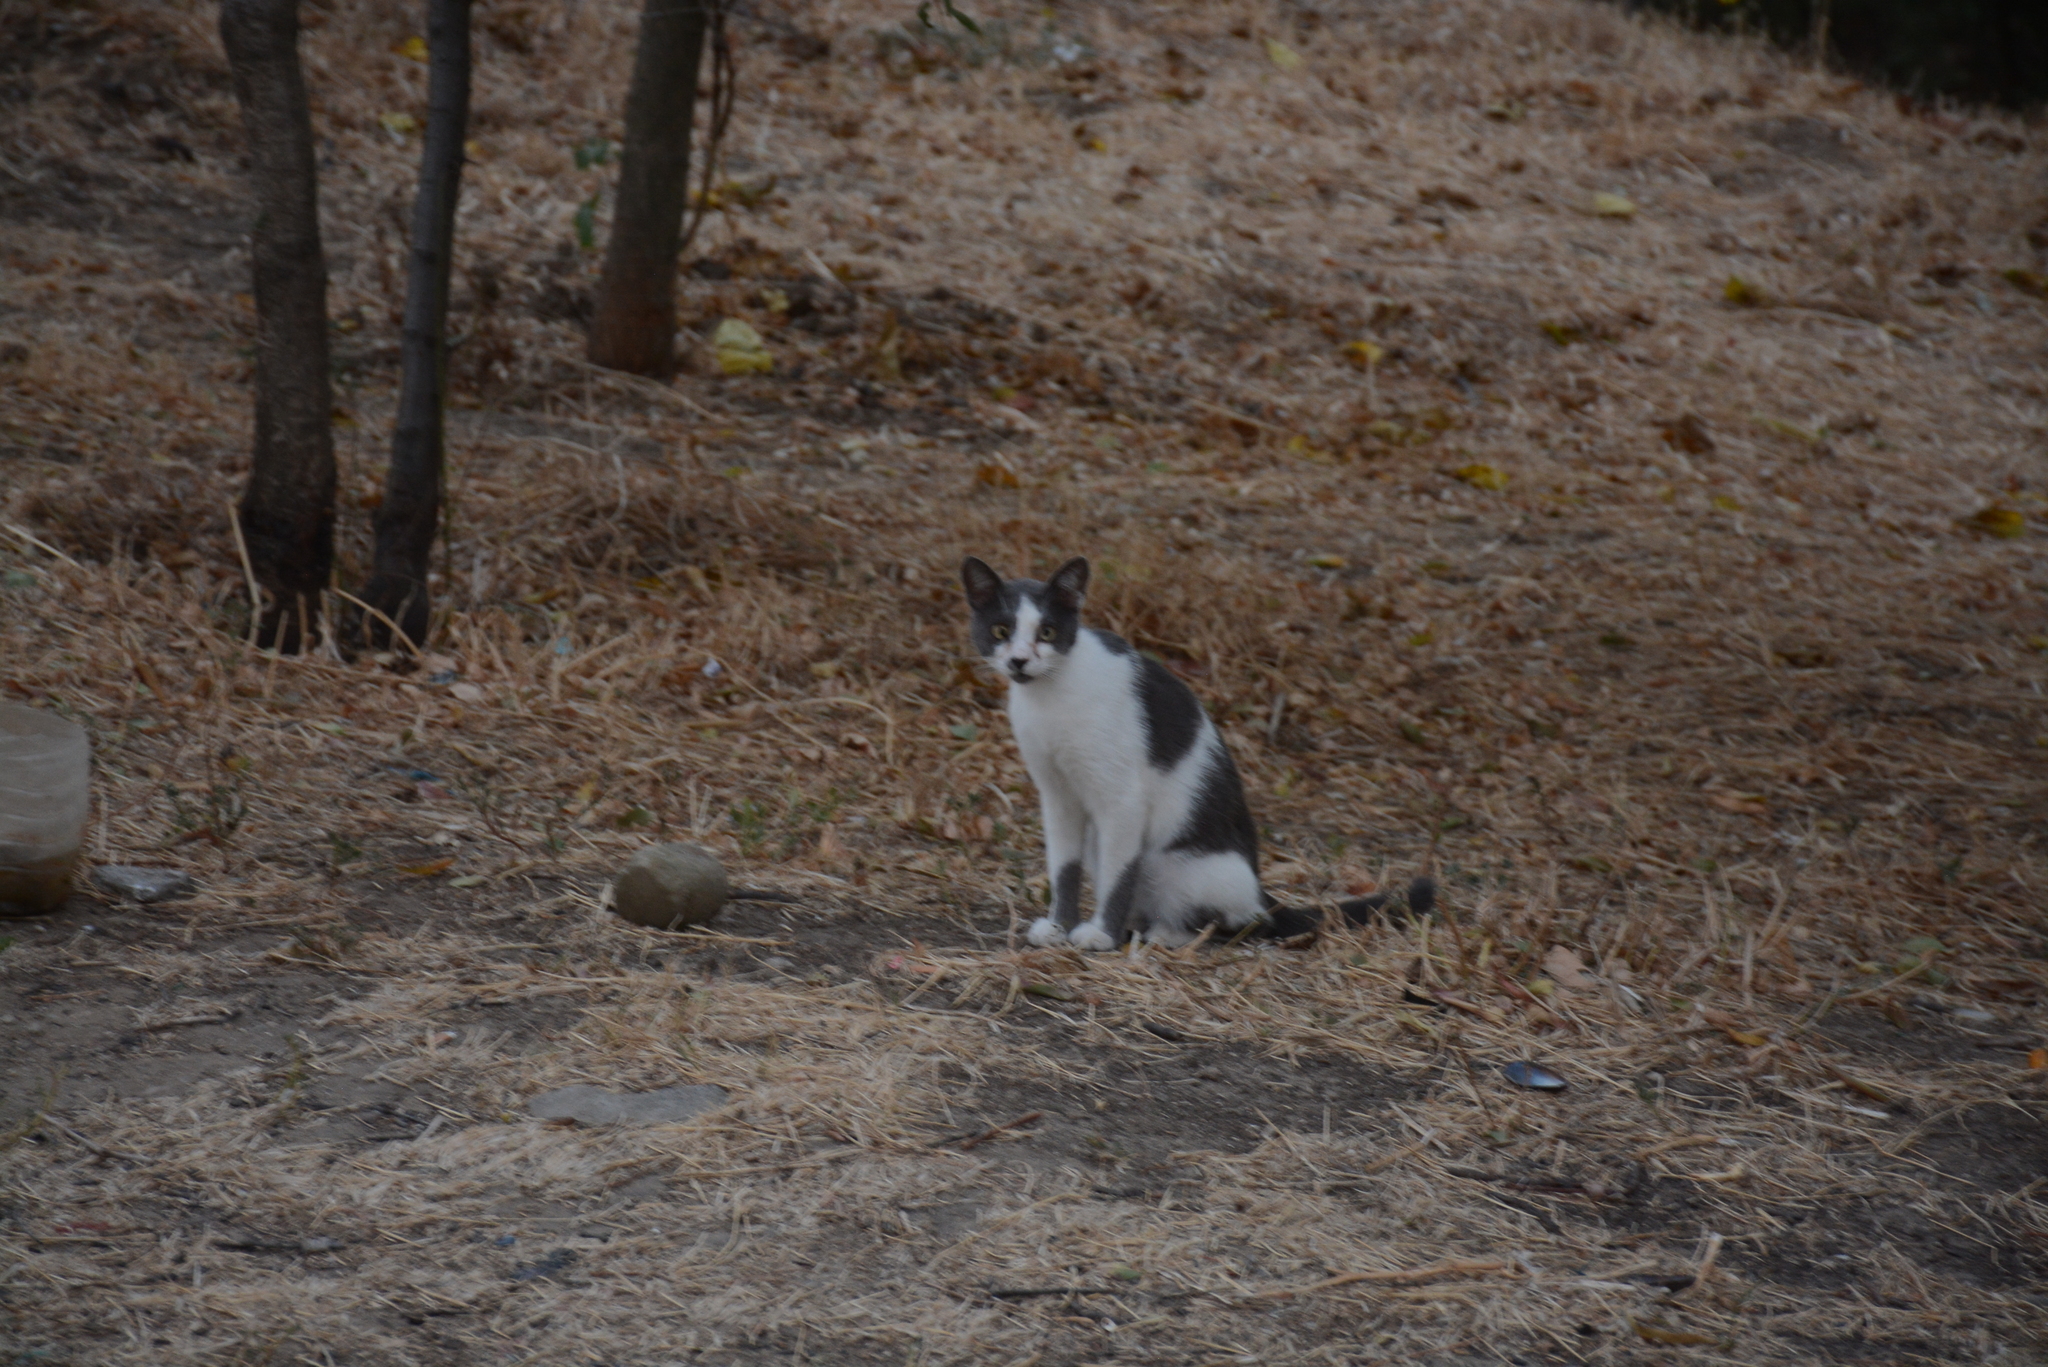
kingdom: Animalia
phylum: Chordata
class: Mammalia
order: Carnivora
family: Felidae
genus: Felis
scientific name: Felis catus
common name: Domestic cat
